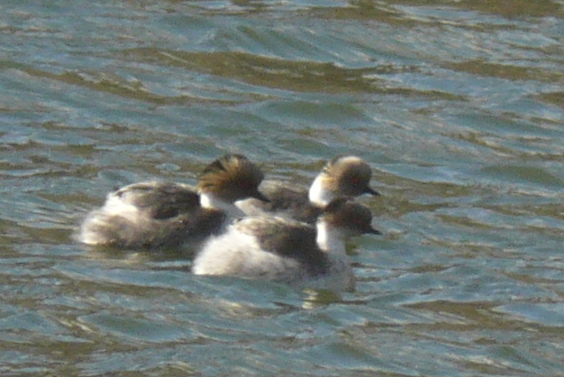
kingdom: Animalia
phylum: Chordata
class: Aves
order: Podicipediformes
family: Podicipedidae
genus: Podiceps
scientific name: Podiceps occipitalis
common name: Silvery grebe
